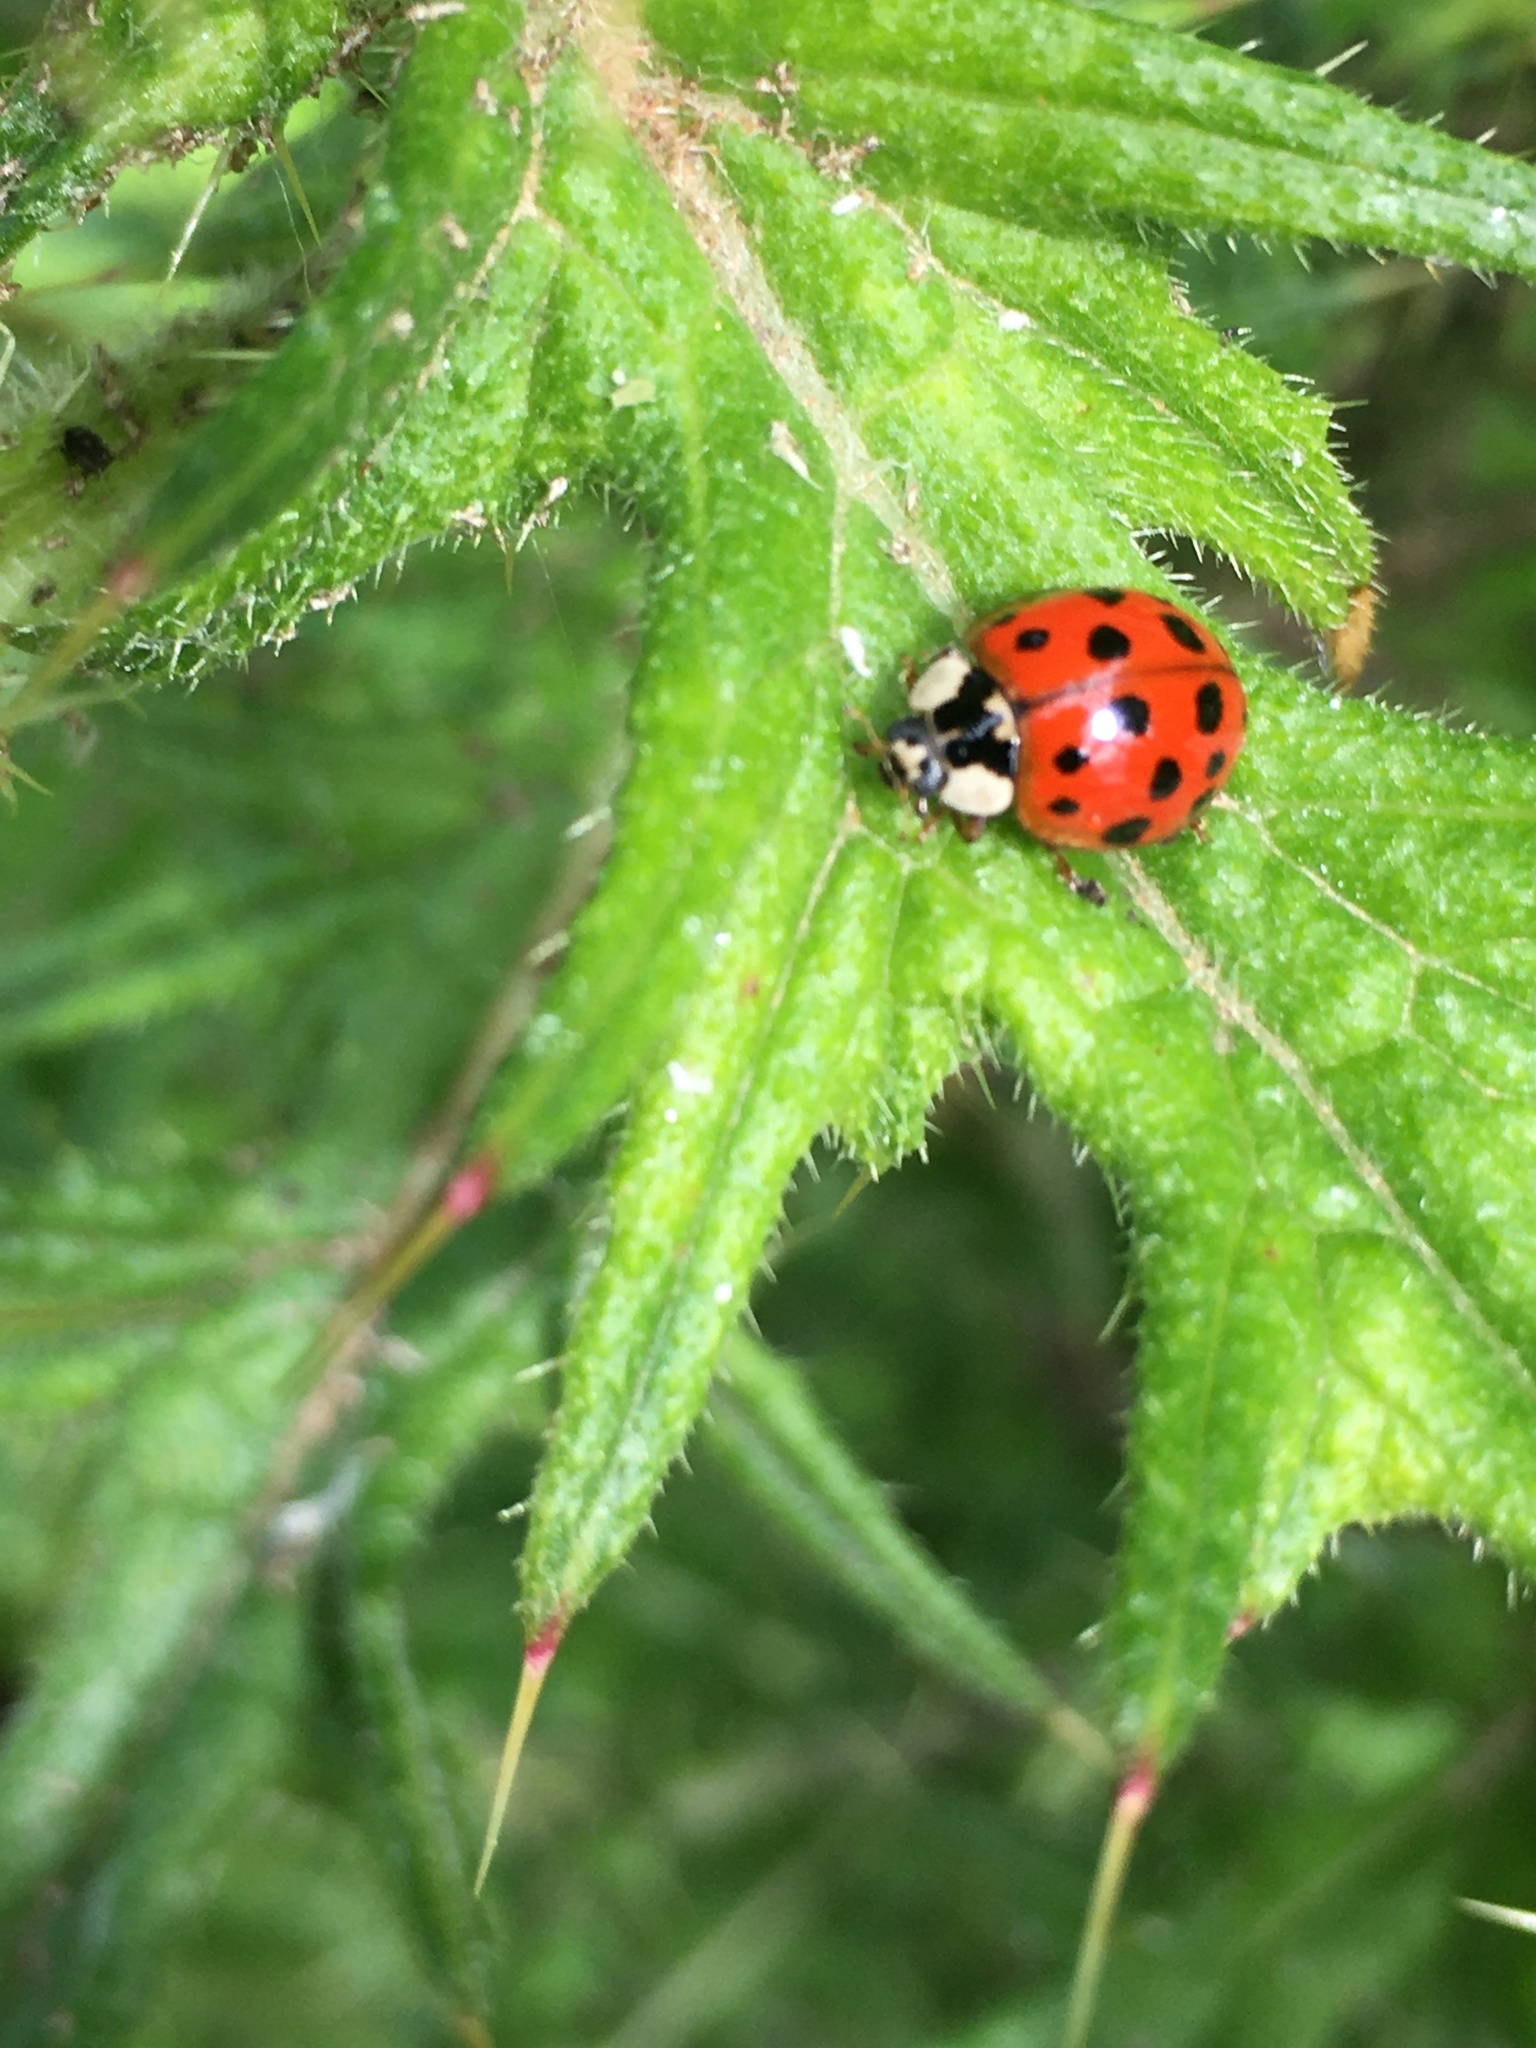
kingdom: Animalia
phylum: Arthropoda
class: Insecta
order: Coleoptera
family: Coccinellidae
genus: Harmonia
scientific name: Harmonia axyridis
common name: Harlequin ladybird
